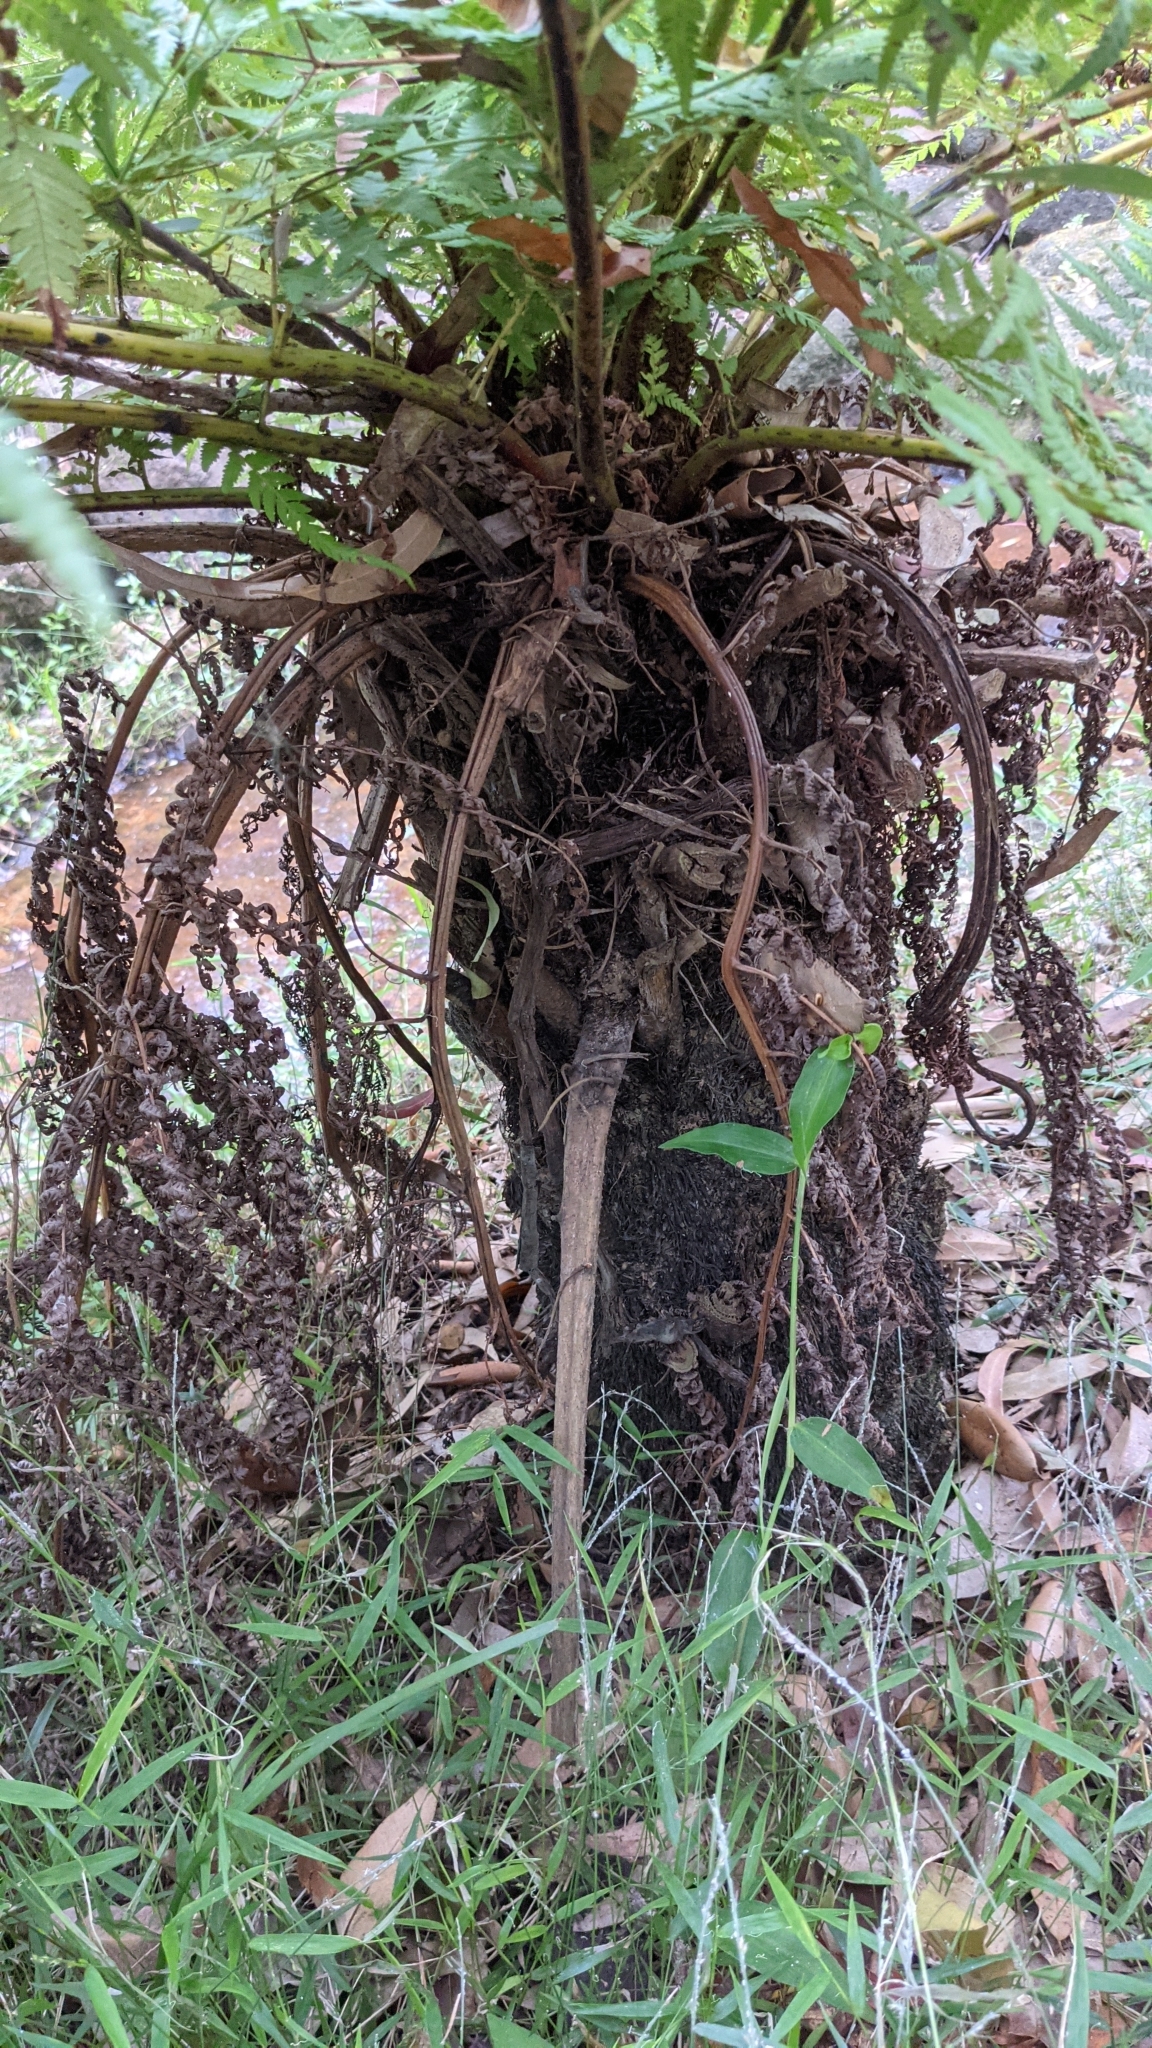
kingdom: Plantae
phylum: Tracheophyta
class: Polypodiopsida
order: Cyatheales
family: Cyatheaceae
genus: Alsophila
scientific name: Alsophila australis
